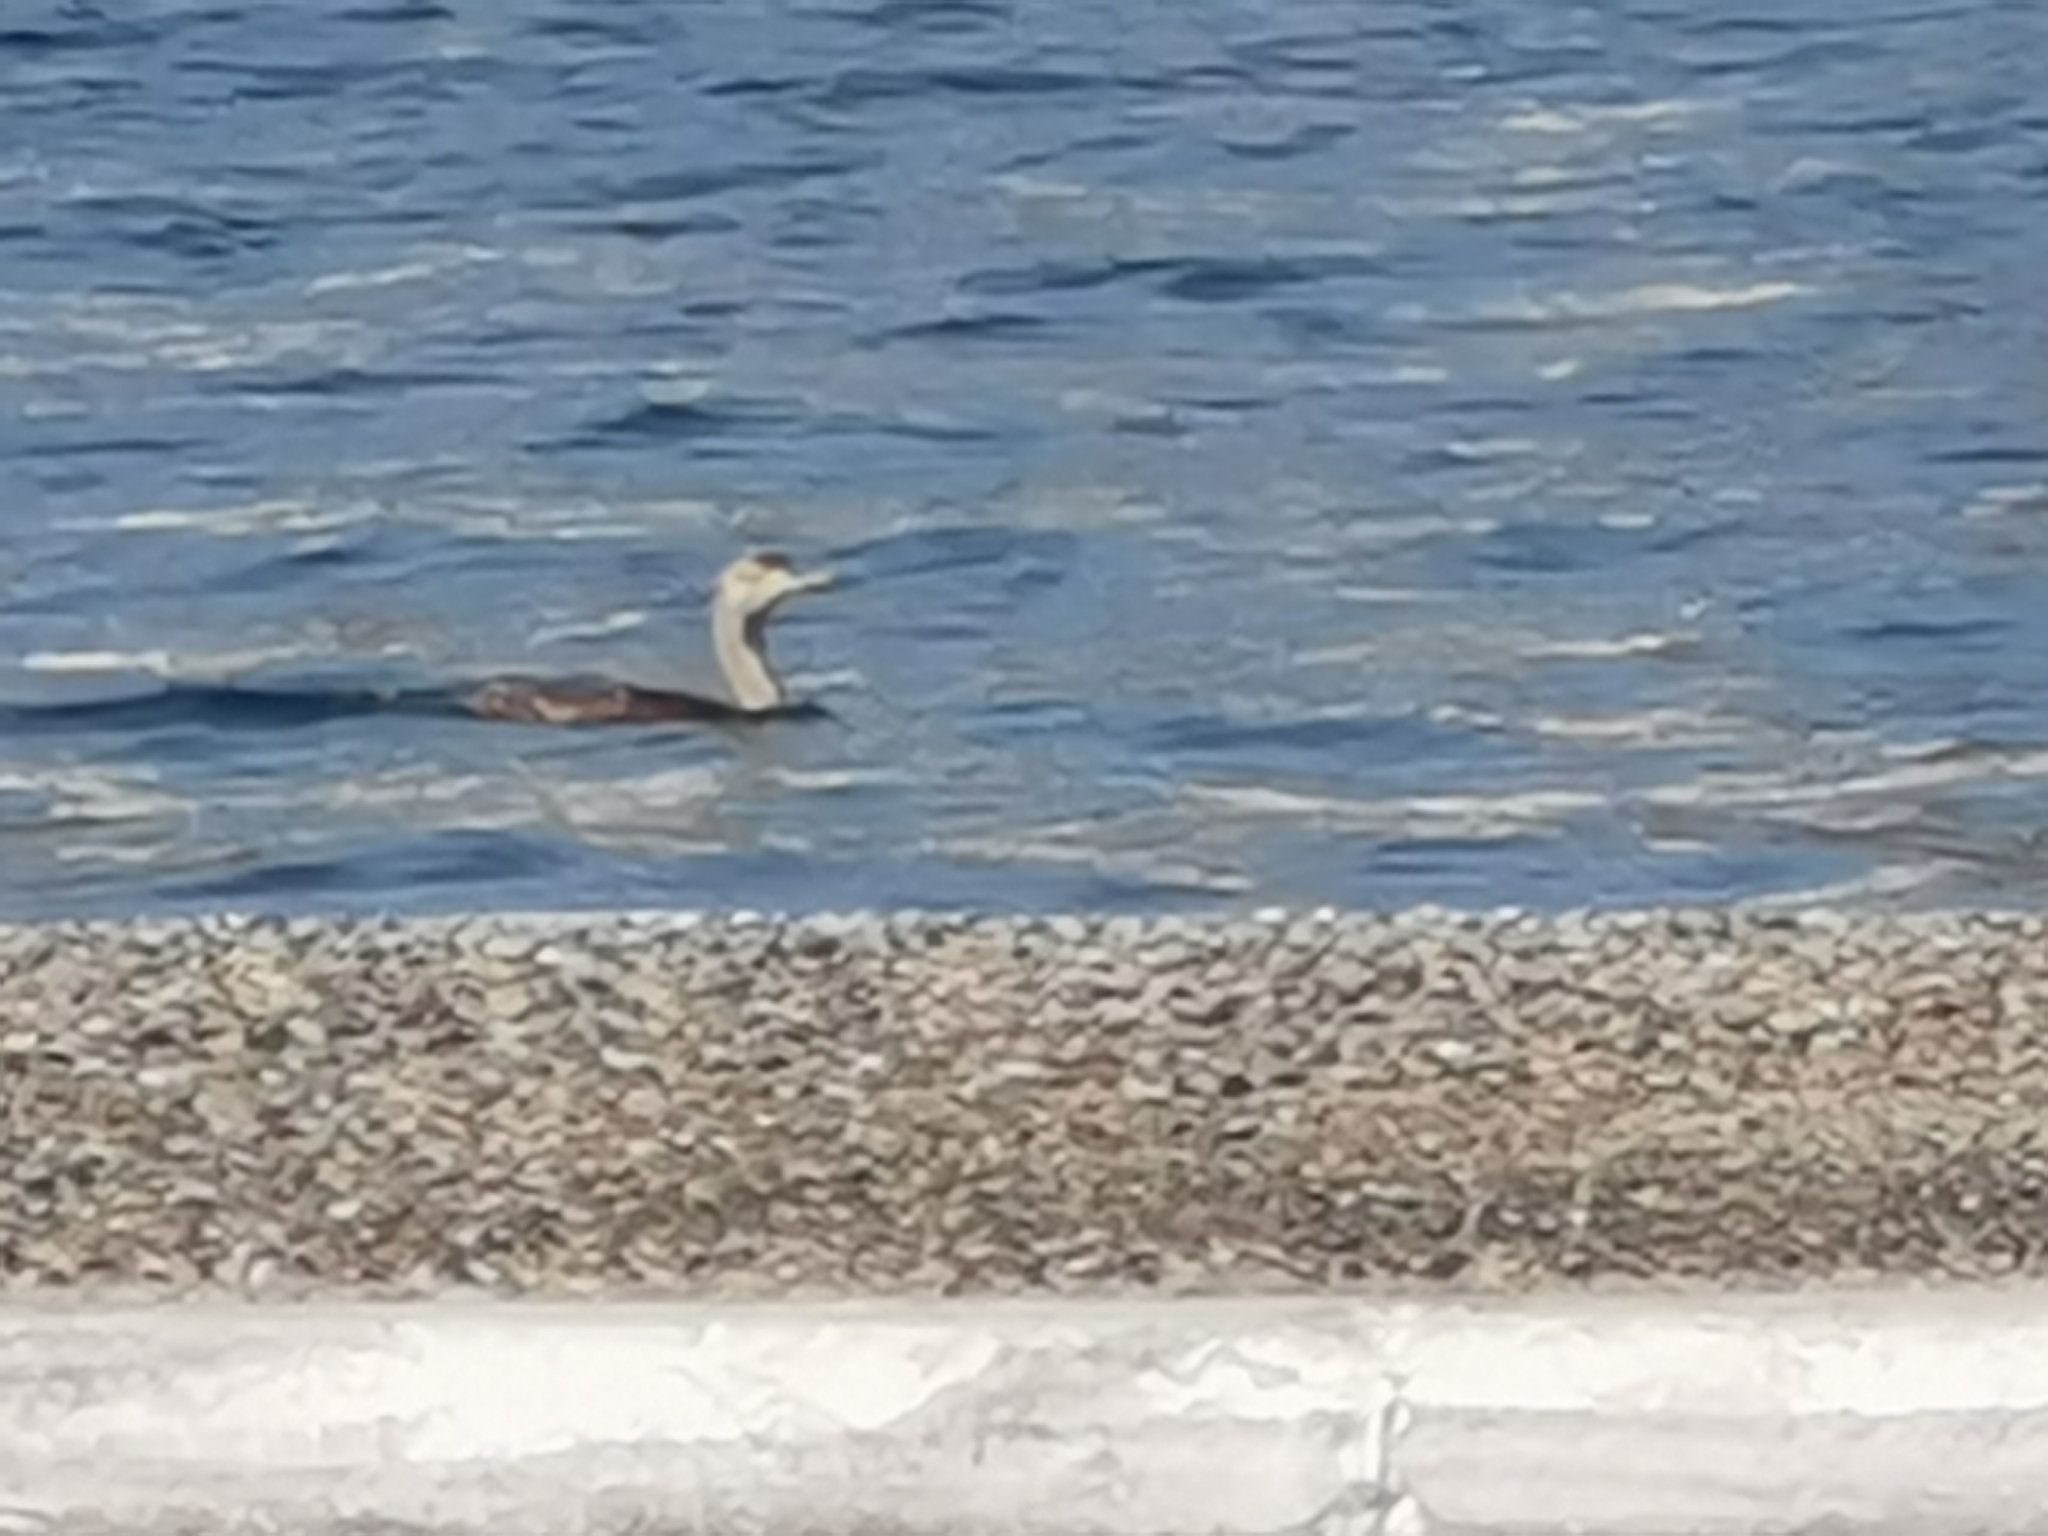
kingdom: Animalia
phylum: Chordata
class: Aves
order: Suliformes
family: Phalacrocoracidae
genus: Phalacrocorax
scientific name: Phalacrocorax aristotelis
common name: European shag
